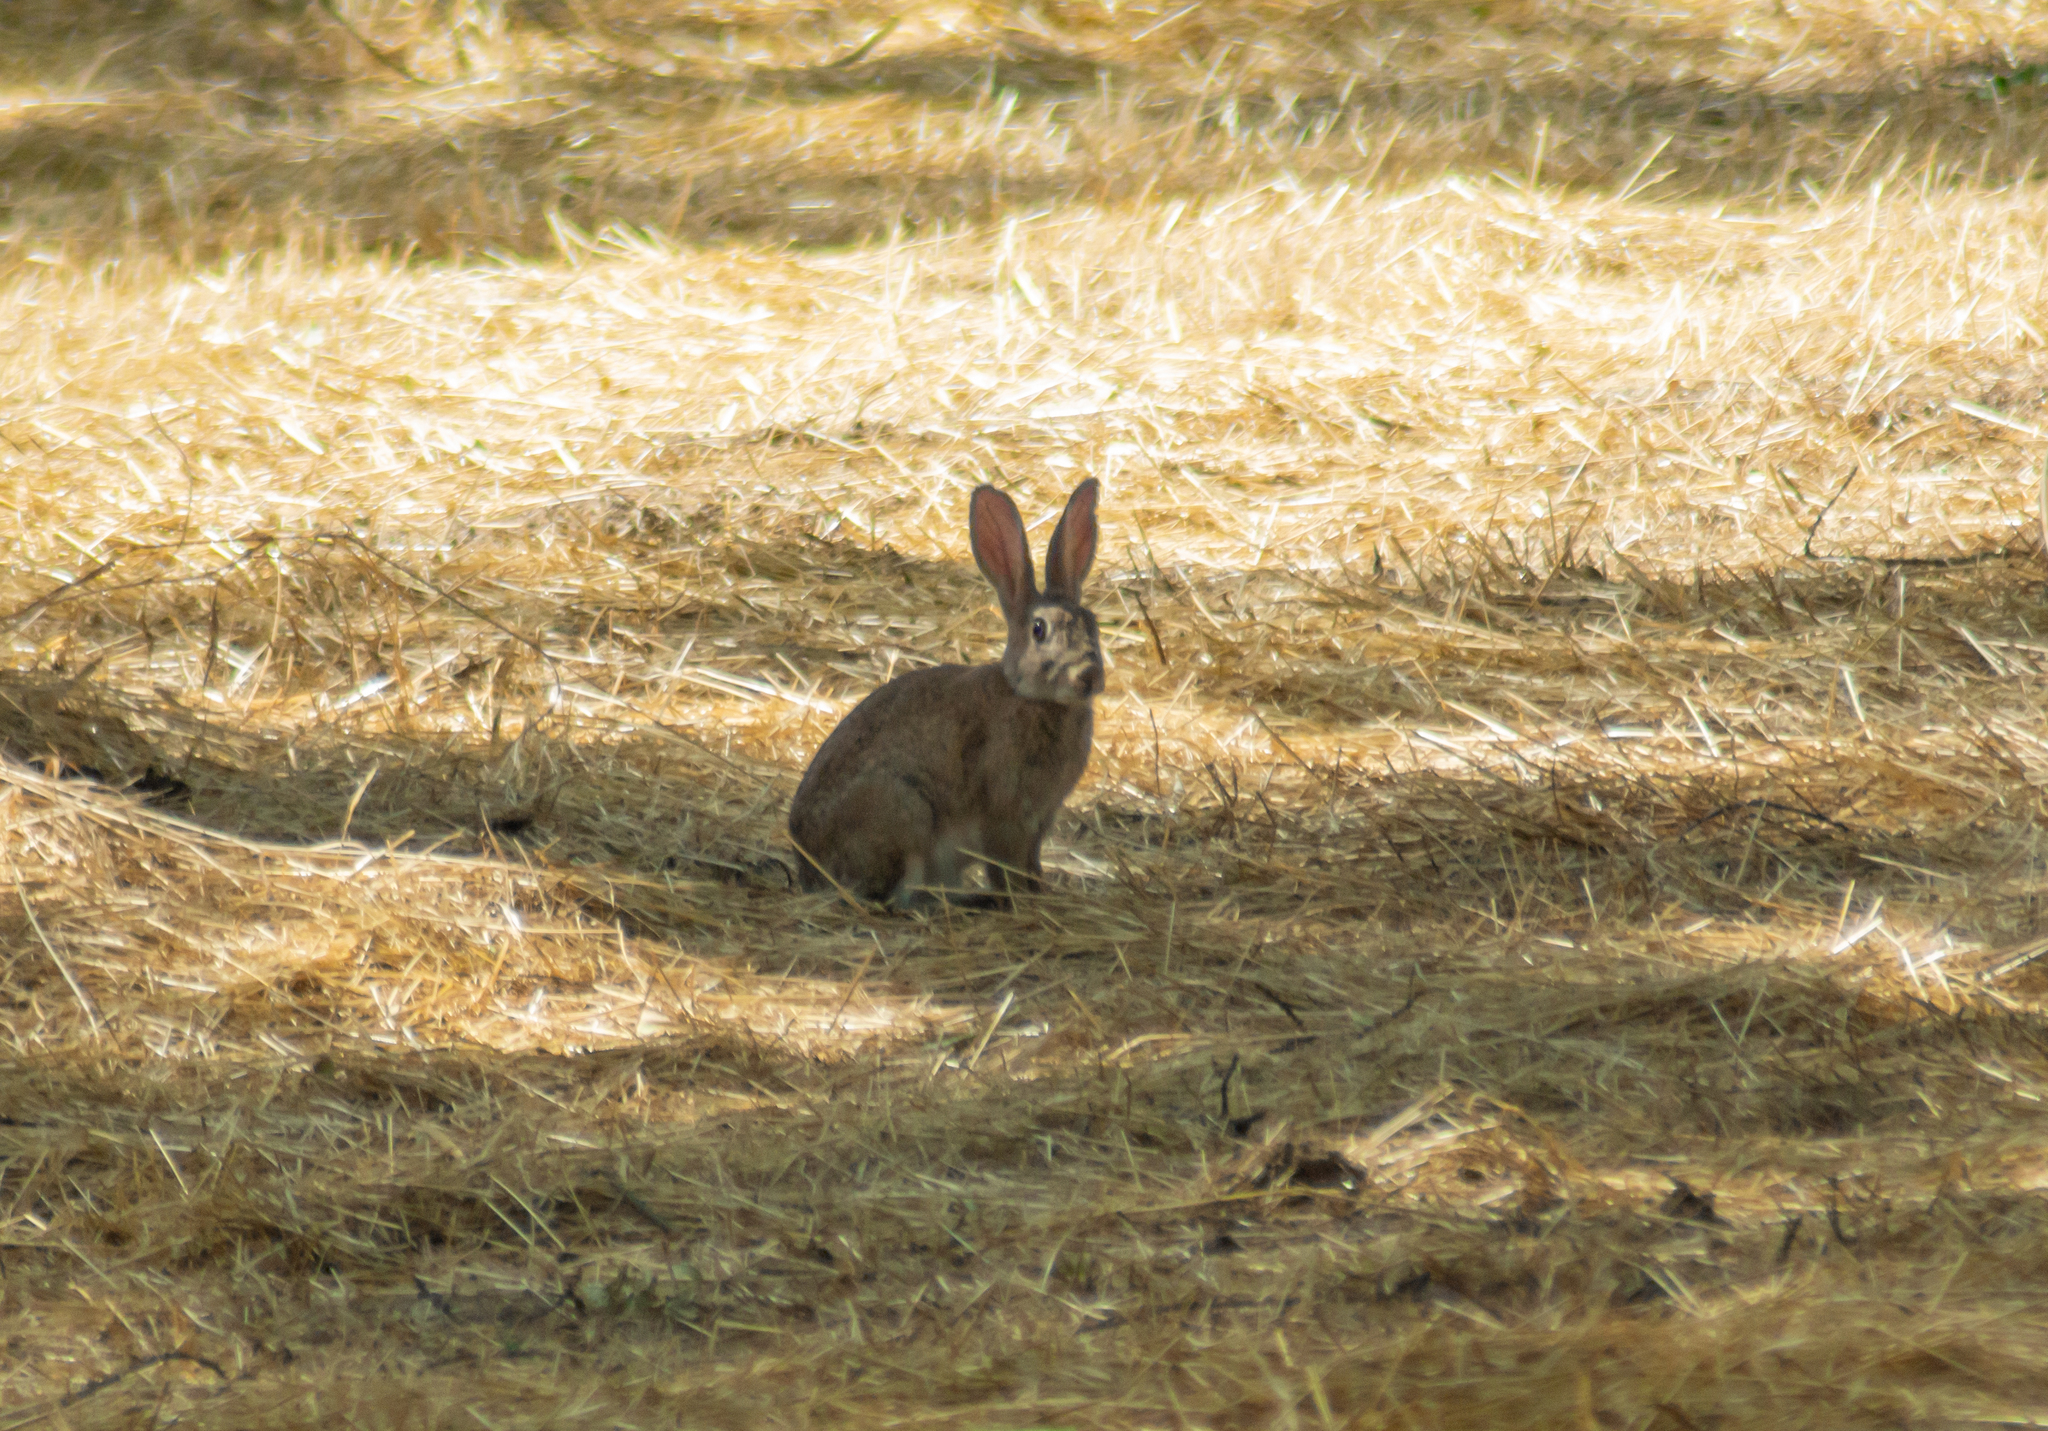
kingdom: Animalia
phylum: Chordata
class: Mammalia
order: Lagomorpha
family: Leporidae
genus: Oryctolagus
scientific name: Oryctolagus cuniculus
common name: European rabbit
